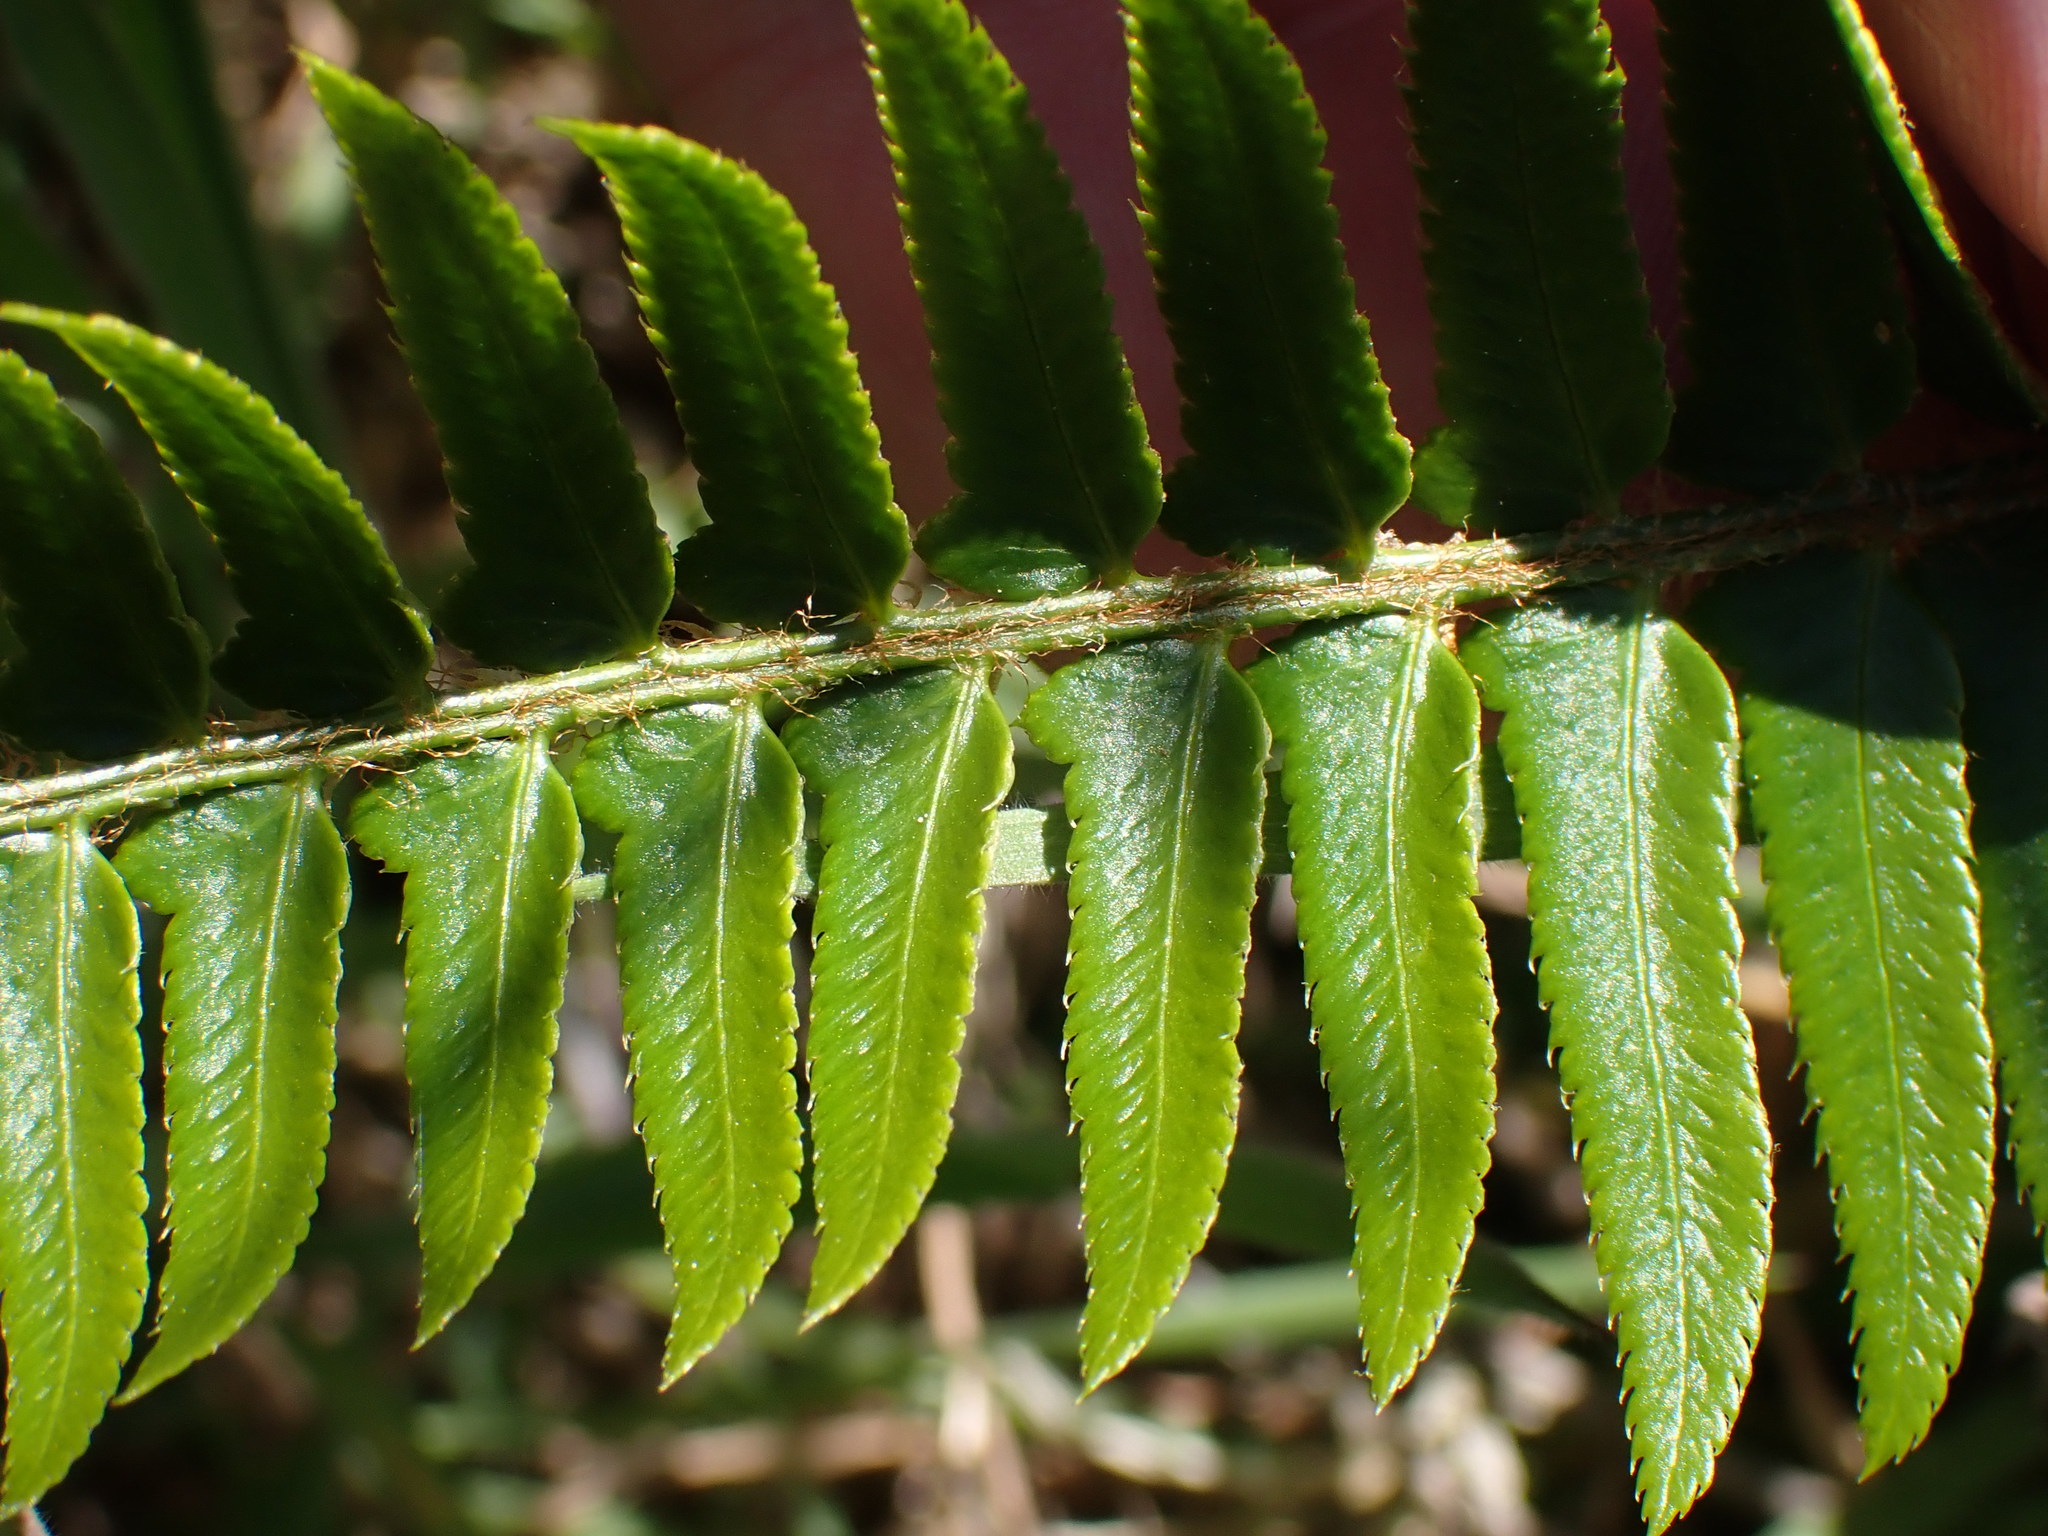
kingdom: Plantae
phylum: Tracheophyta
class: Polypodiopsida
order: Polypodiales
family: Dryopteridaceae
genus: Polystichum
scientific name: Polystichum imbricans
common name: Dwarf western sword fern
